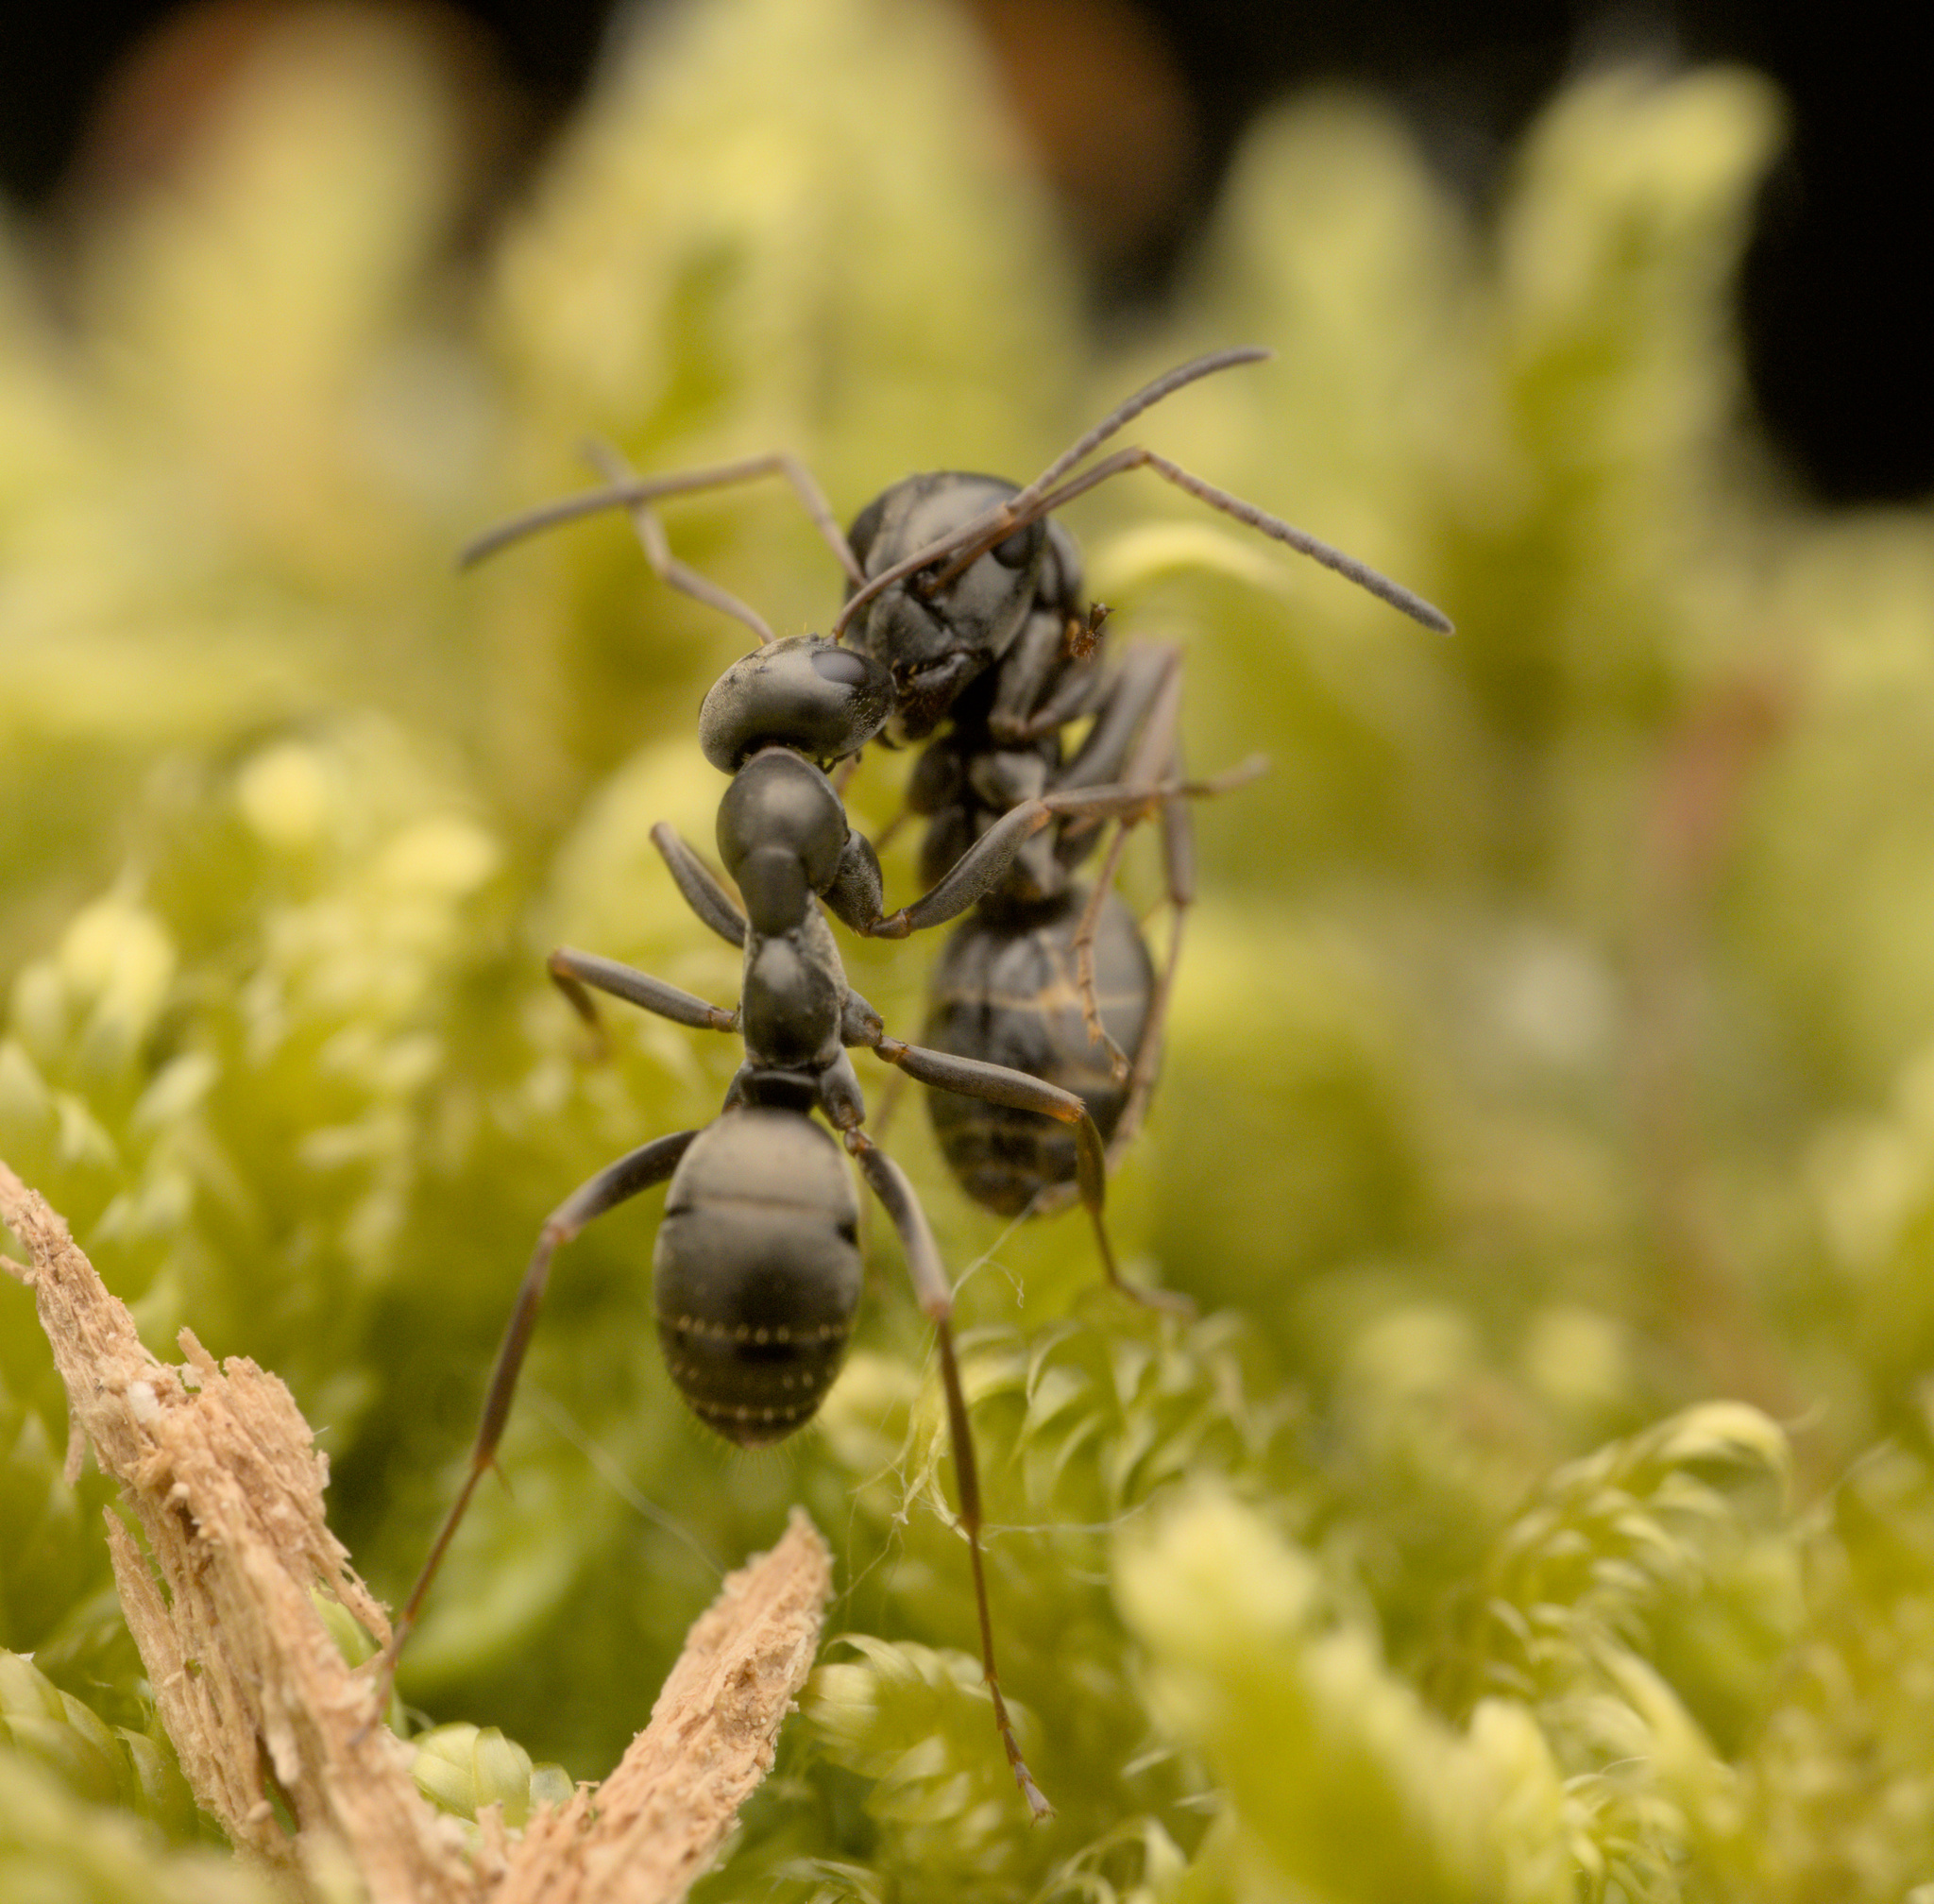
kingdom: Animalia
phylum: Arthropoda
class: Insecta
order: Hymenoptera
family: Formicidae
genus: Formica
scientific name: Formica fusca
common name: Silky ant
